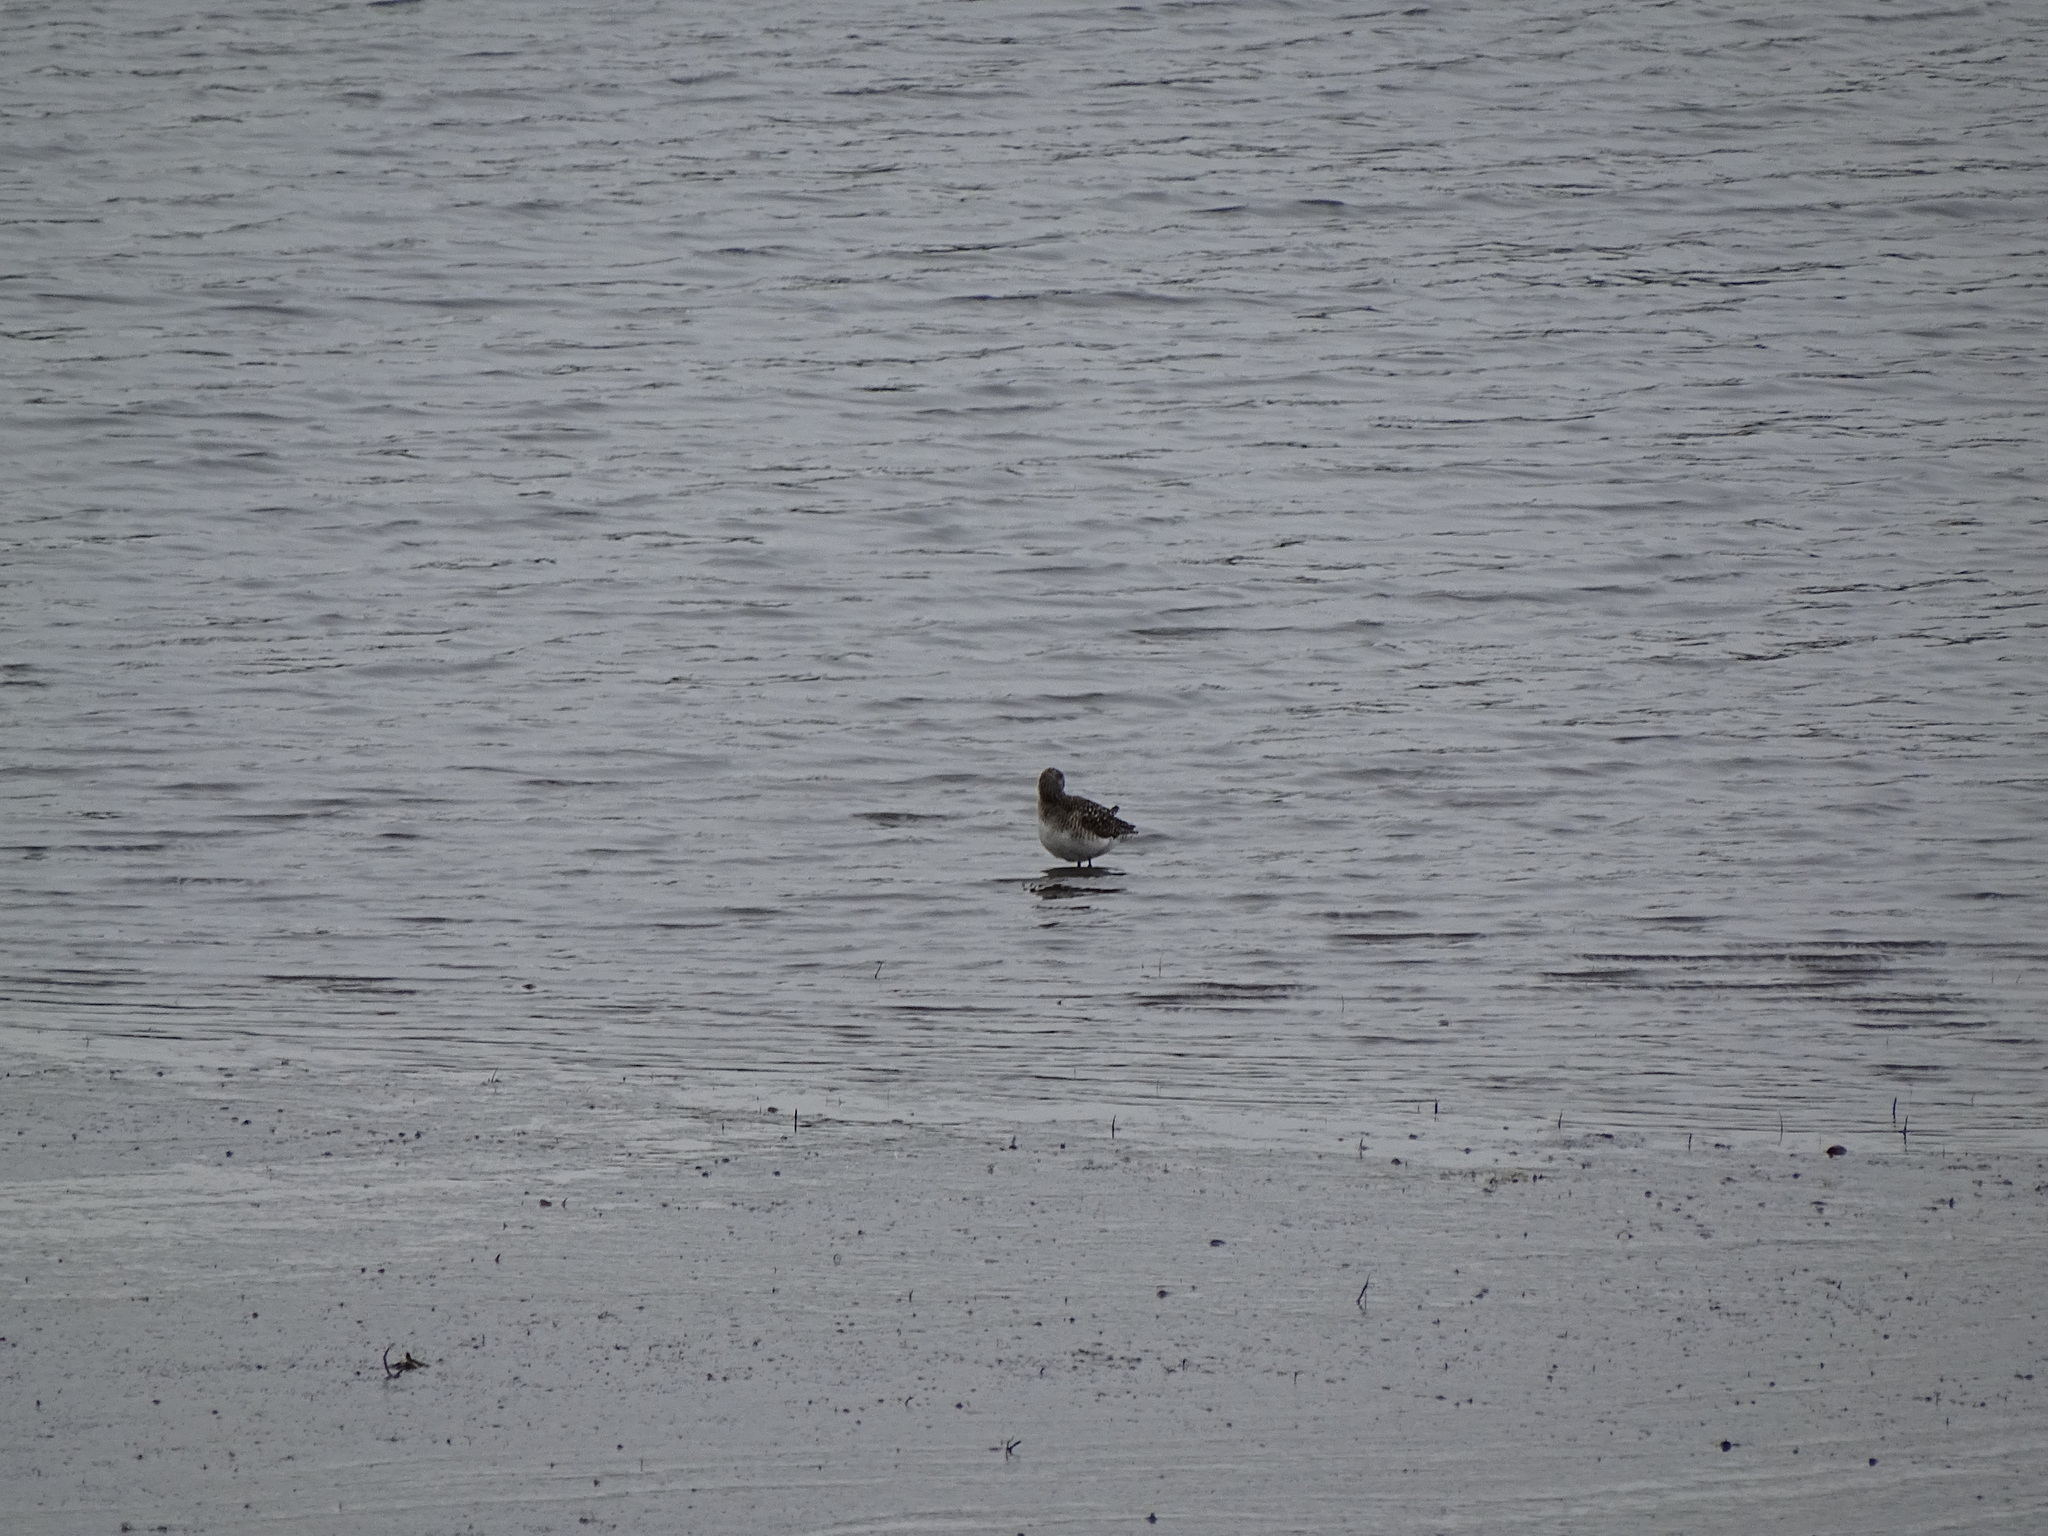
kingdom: Animalia
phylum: Chordata
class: Aves
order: Charadriiformes
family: Scolopacidae
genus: Xenus
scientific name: Xenus cinereus
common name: Terek sandpiper
